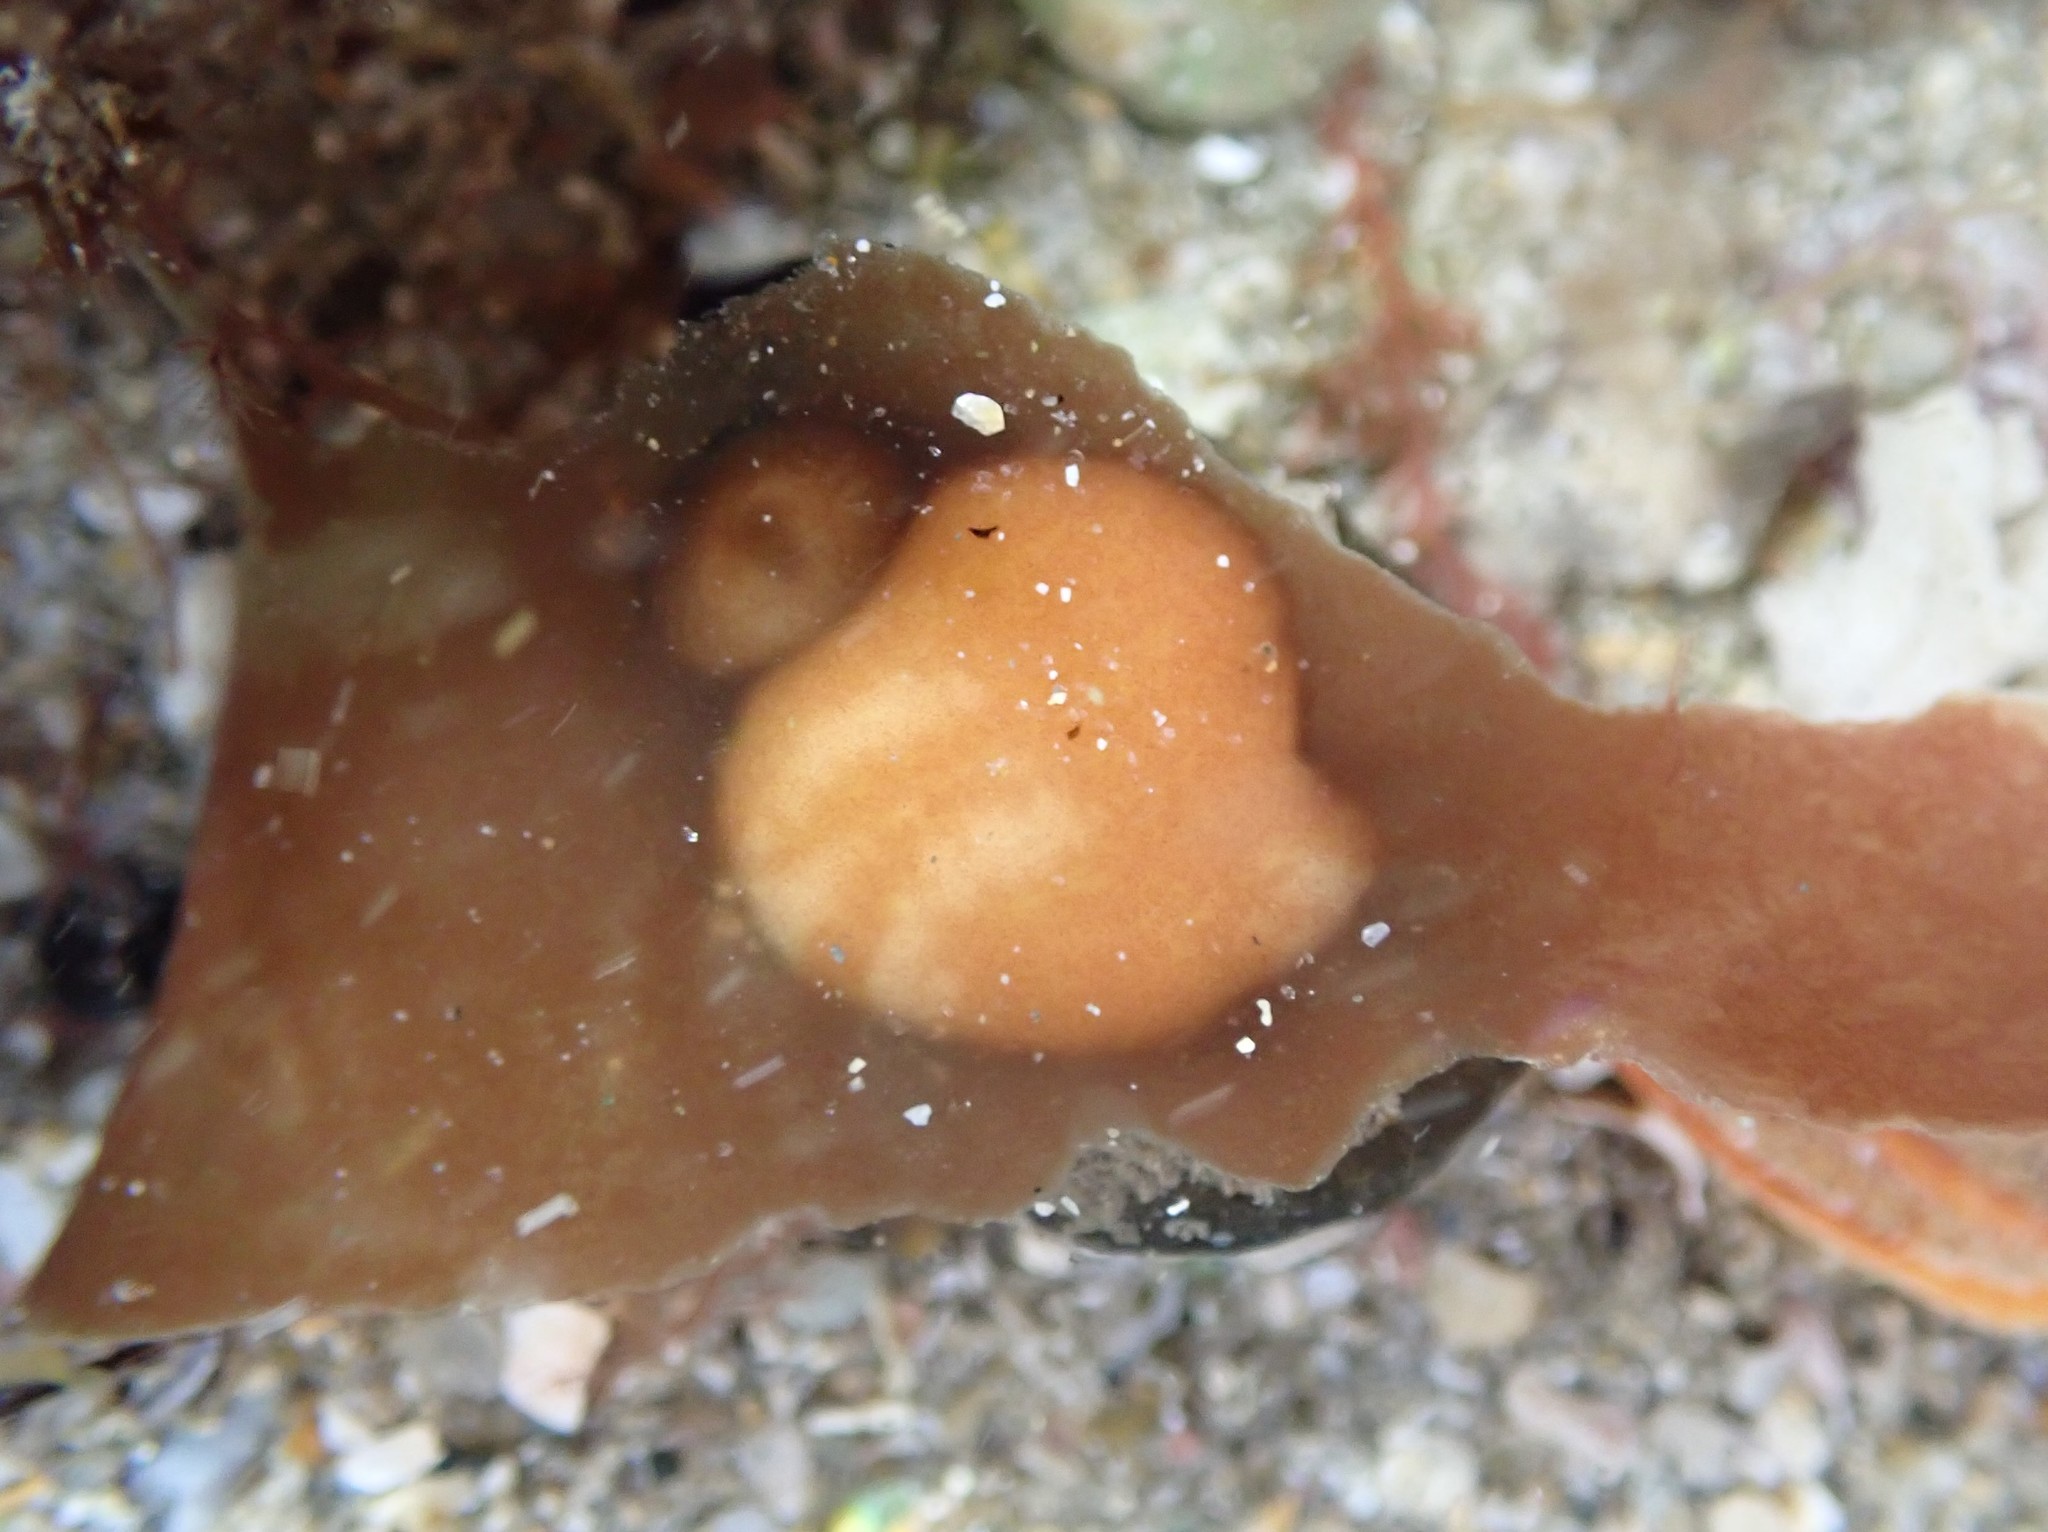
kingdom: Animalia
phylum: Mollusca
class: Gastropoda
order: Trochida
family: Turbinidae
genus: Lunella
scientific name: Lunella smaragda
